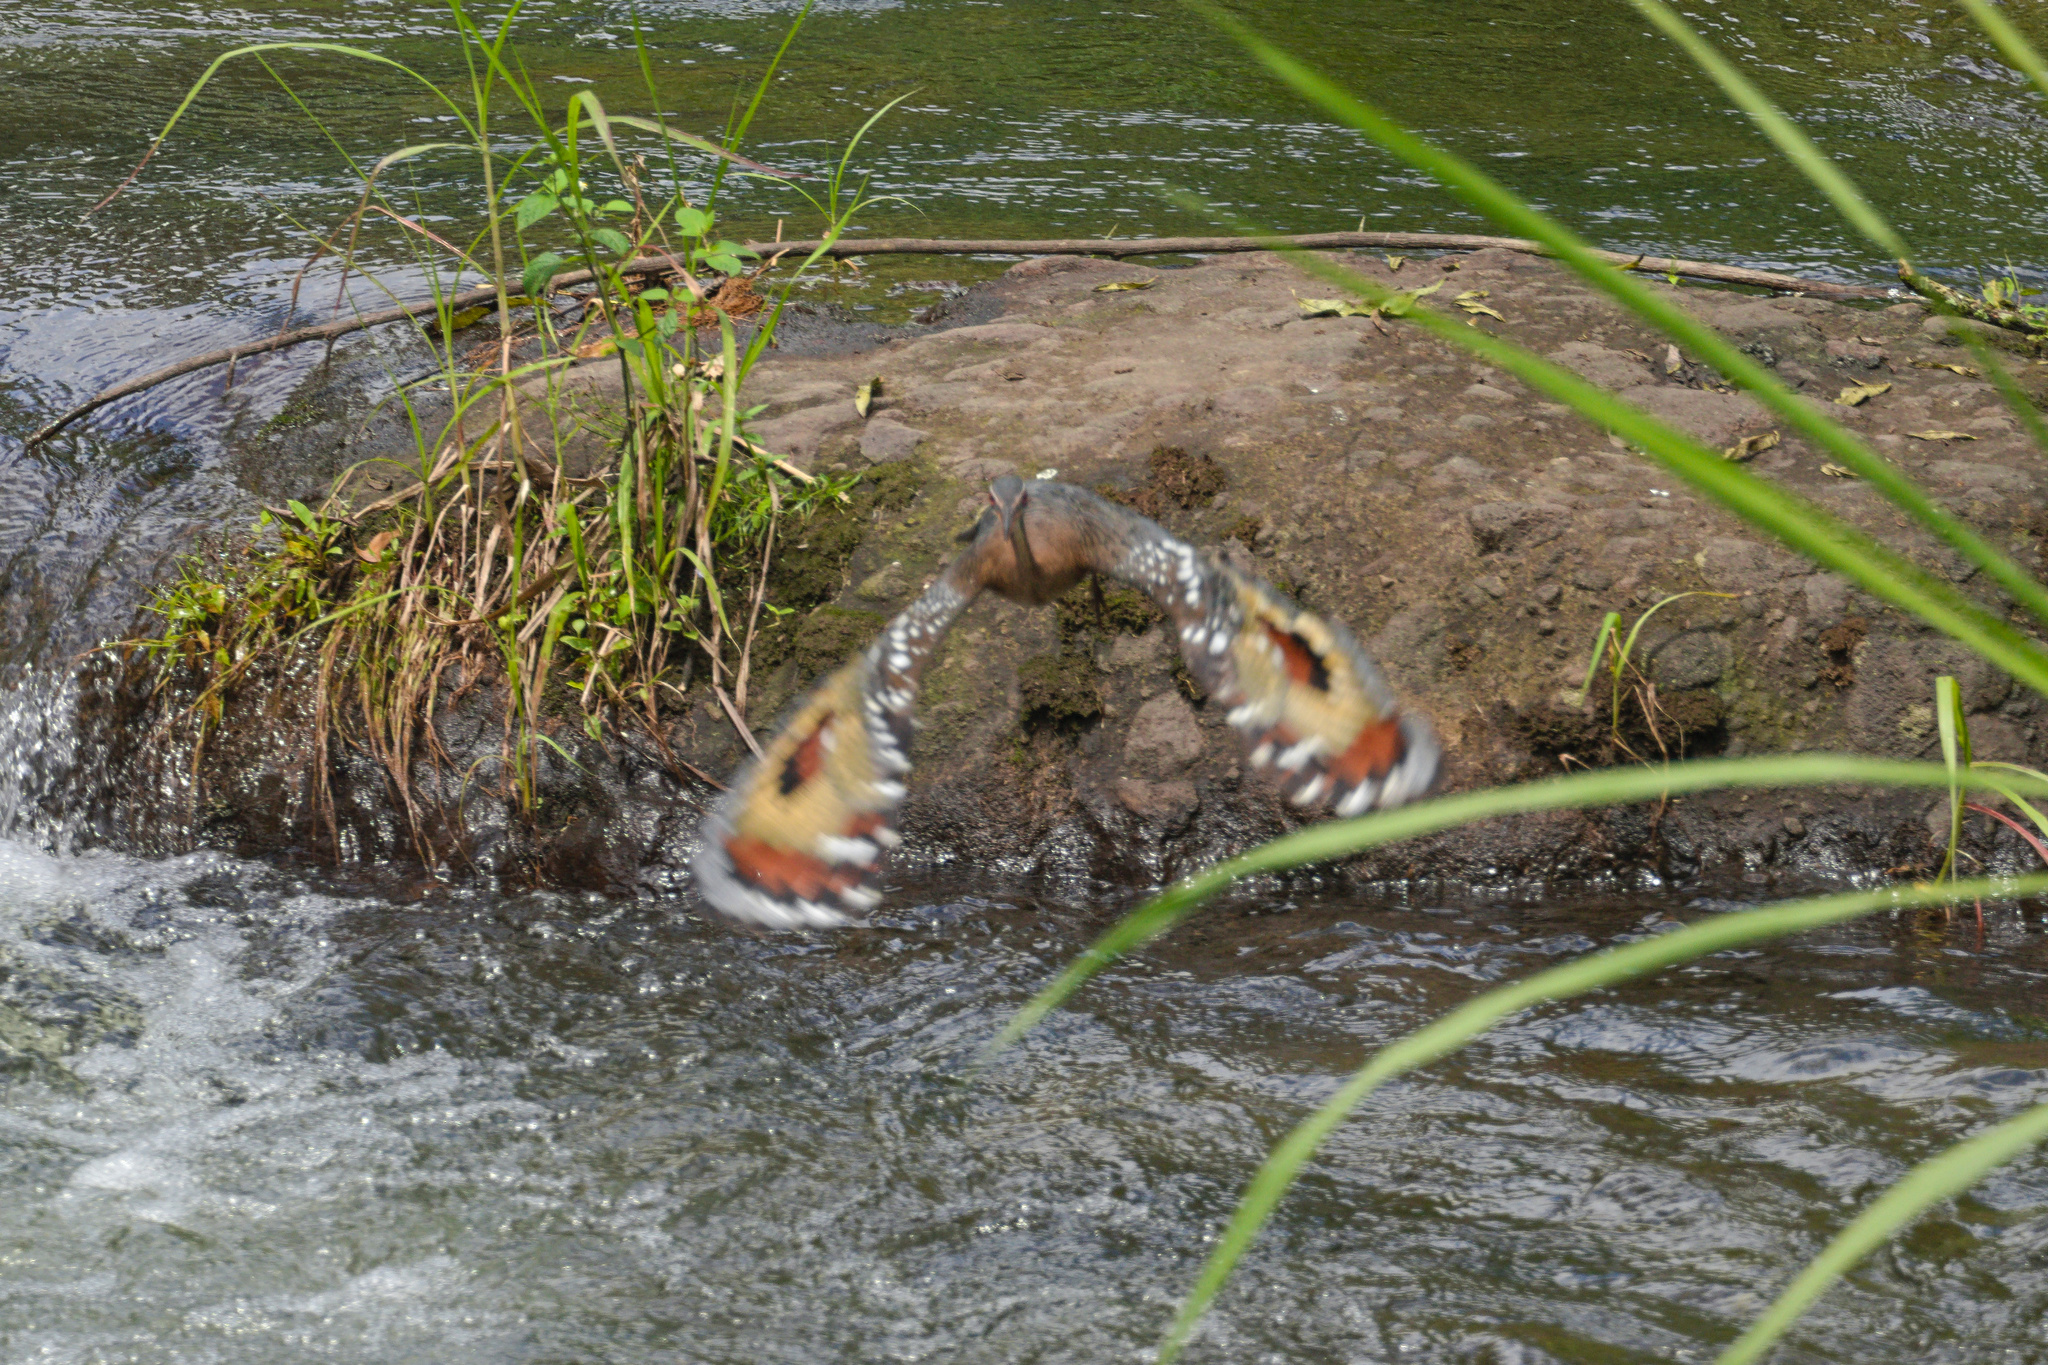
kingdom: Animalia
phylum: Chordata
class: Aves
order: Eurypygiformes
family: Eurypygidae
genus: Eurypyga
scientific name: Eurypyga helias
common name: Sunbittern
